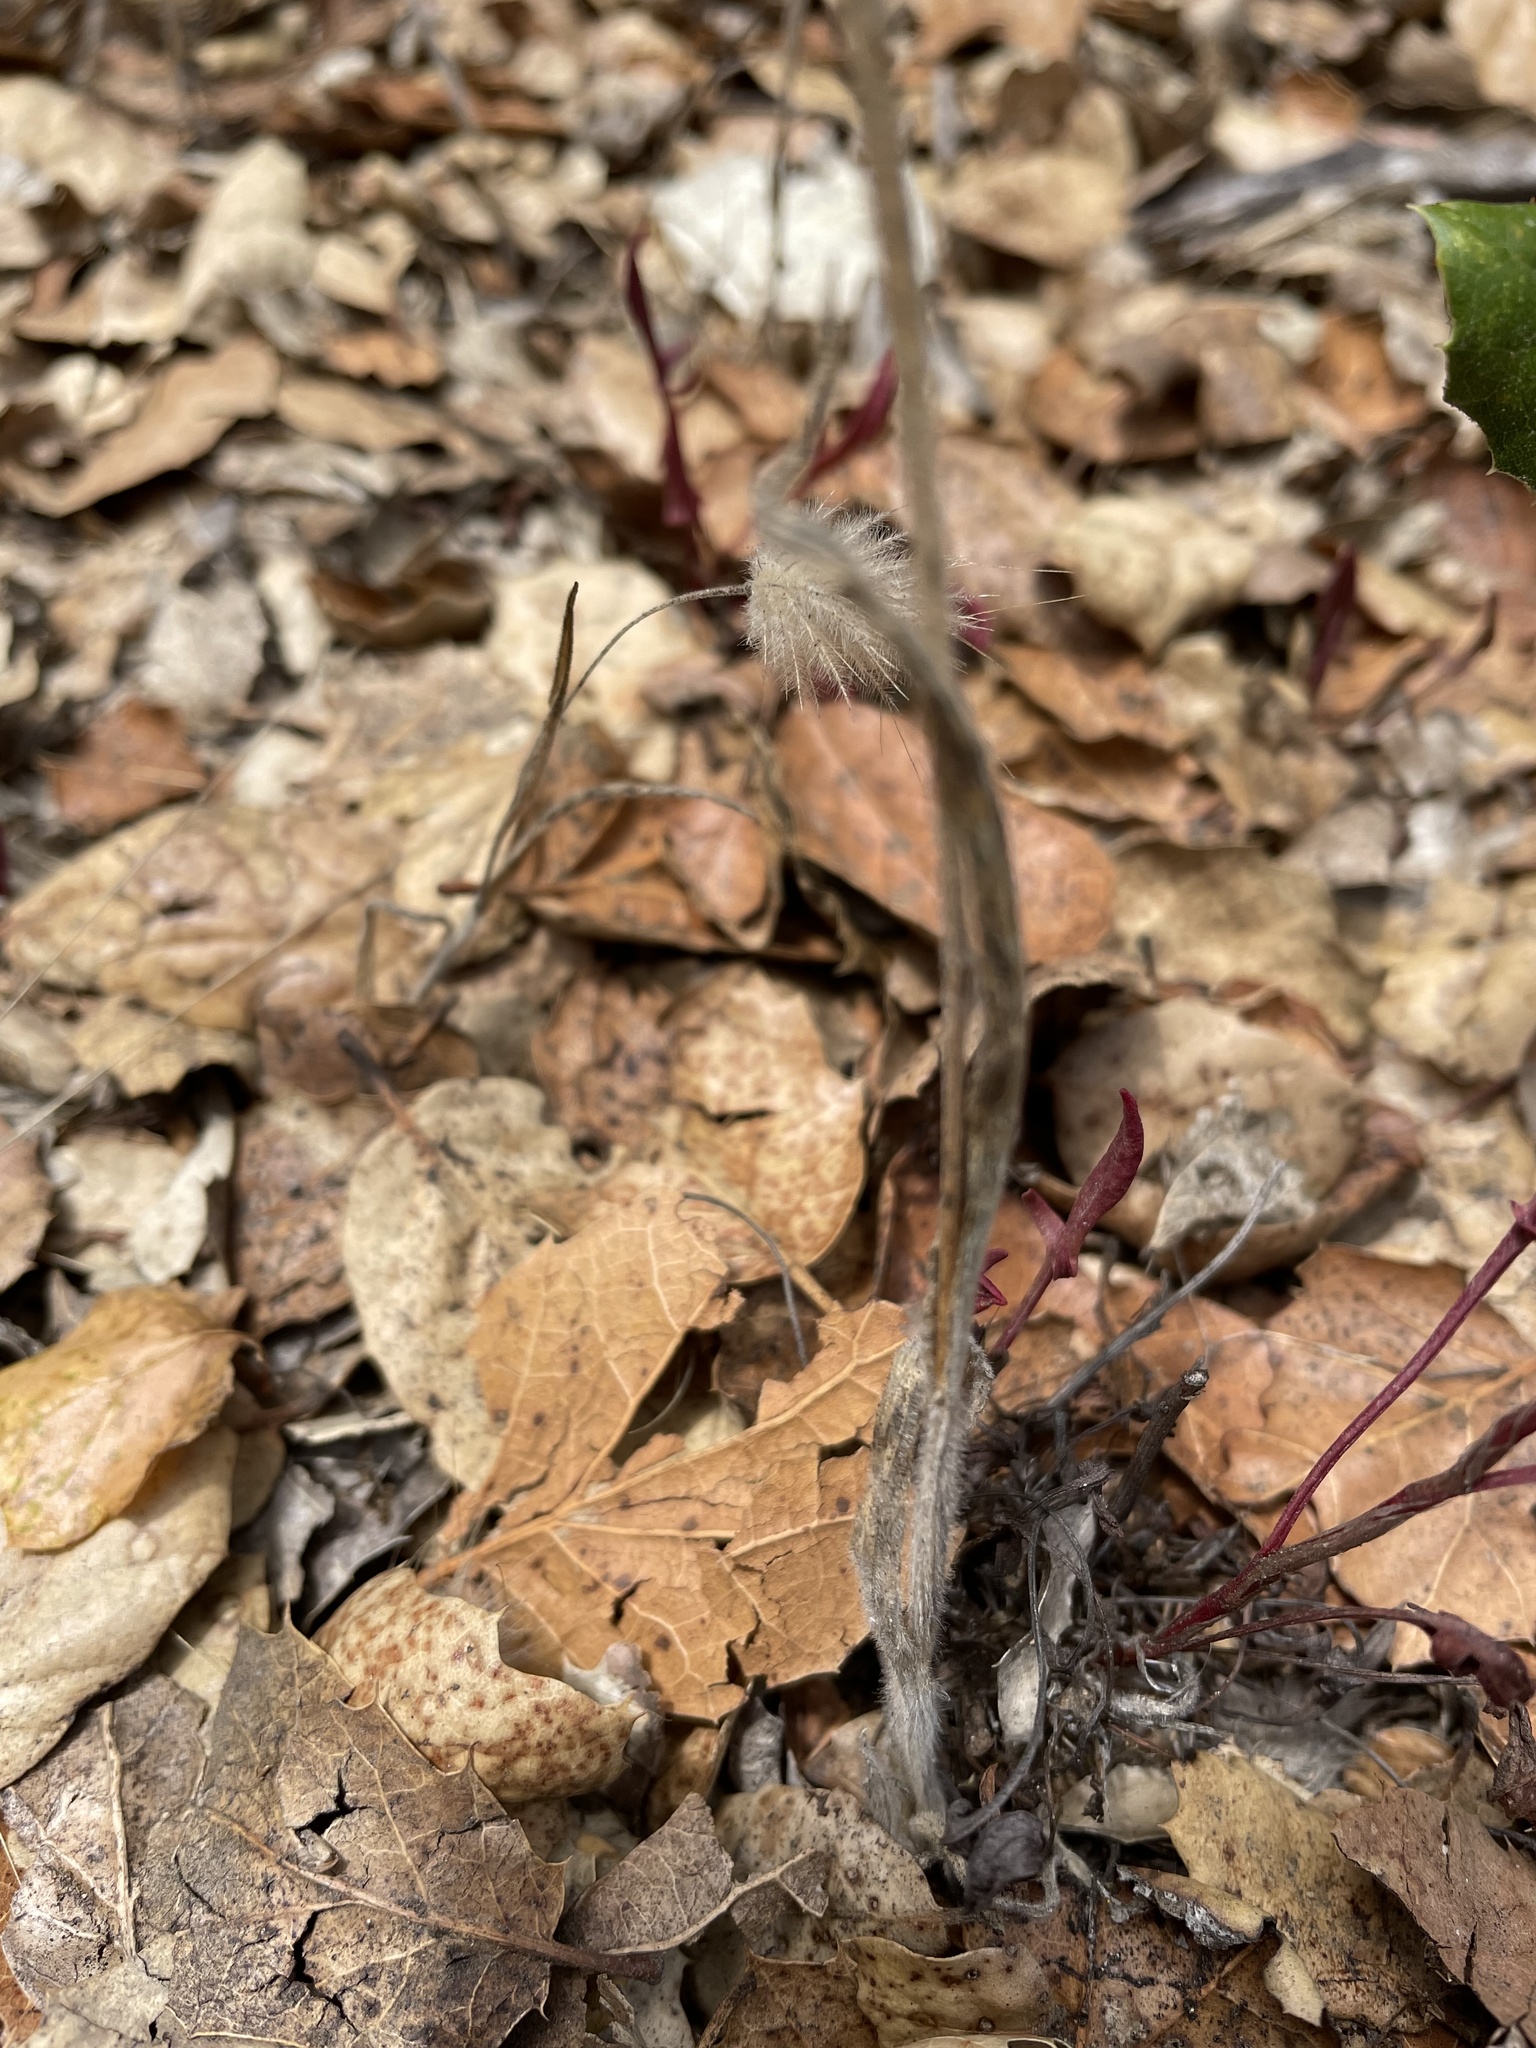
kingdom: Plantae
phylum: Tracheophyta
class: Liliopsida
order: Poales
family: Poaceae
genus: Lagurus
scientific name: Lagurus ovatus
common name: Hare's-tail
